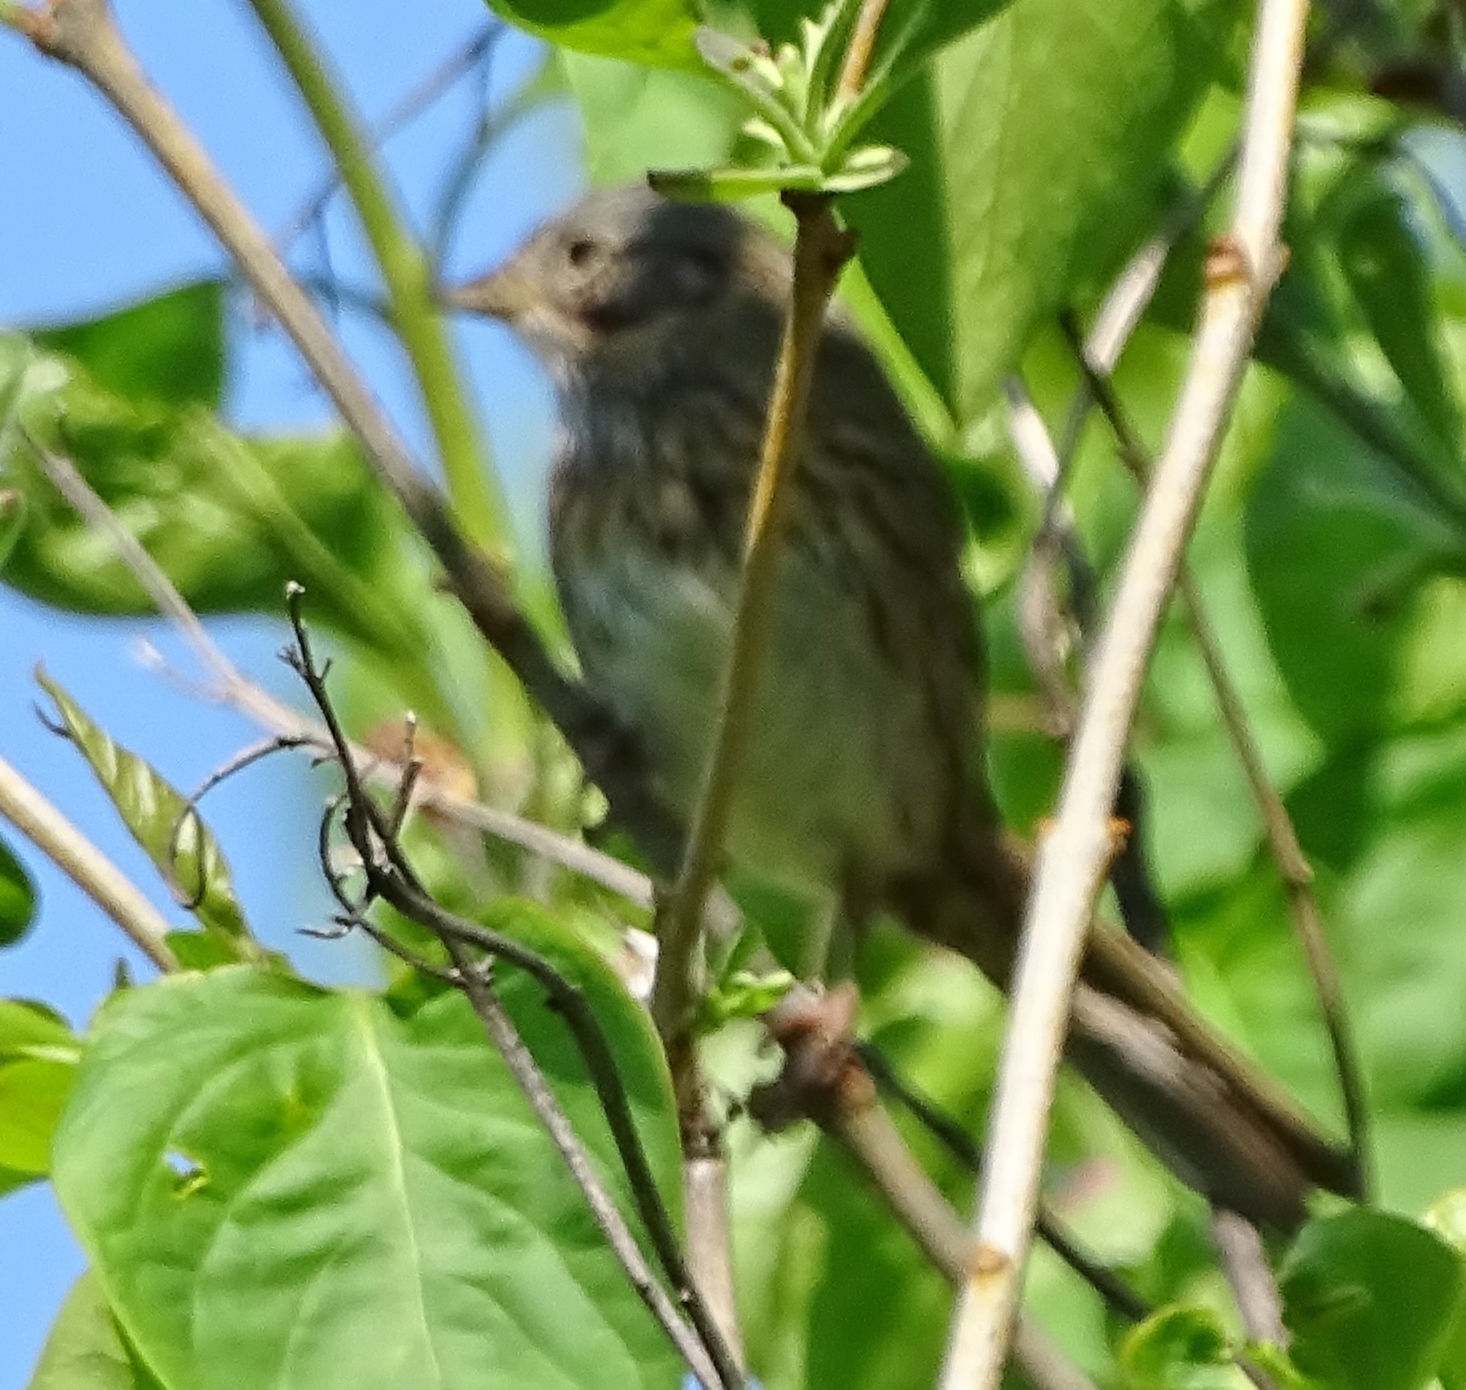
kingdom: Animalia
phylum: Chordata
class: Aves
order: Passeriformes
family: Passerellidae
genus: Melospiza
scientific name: Melospiza
